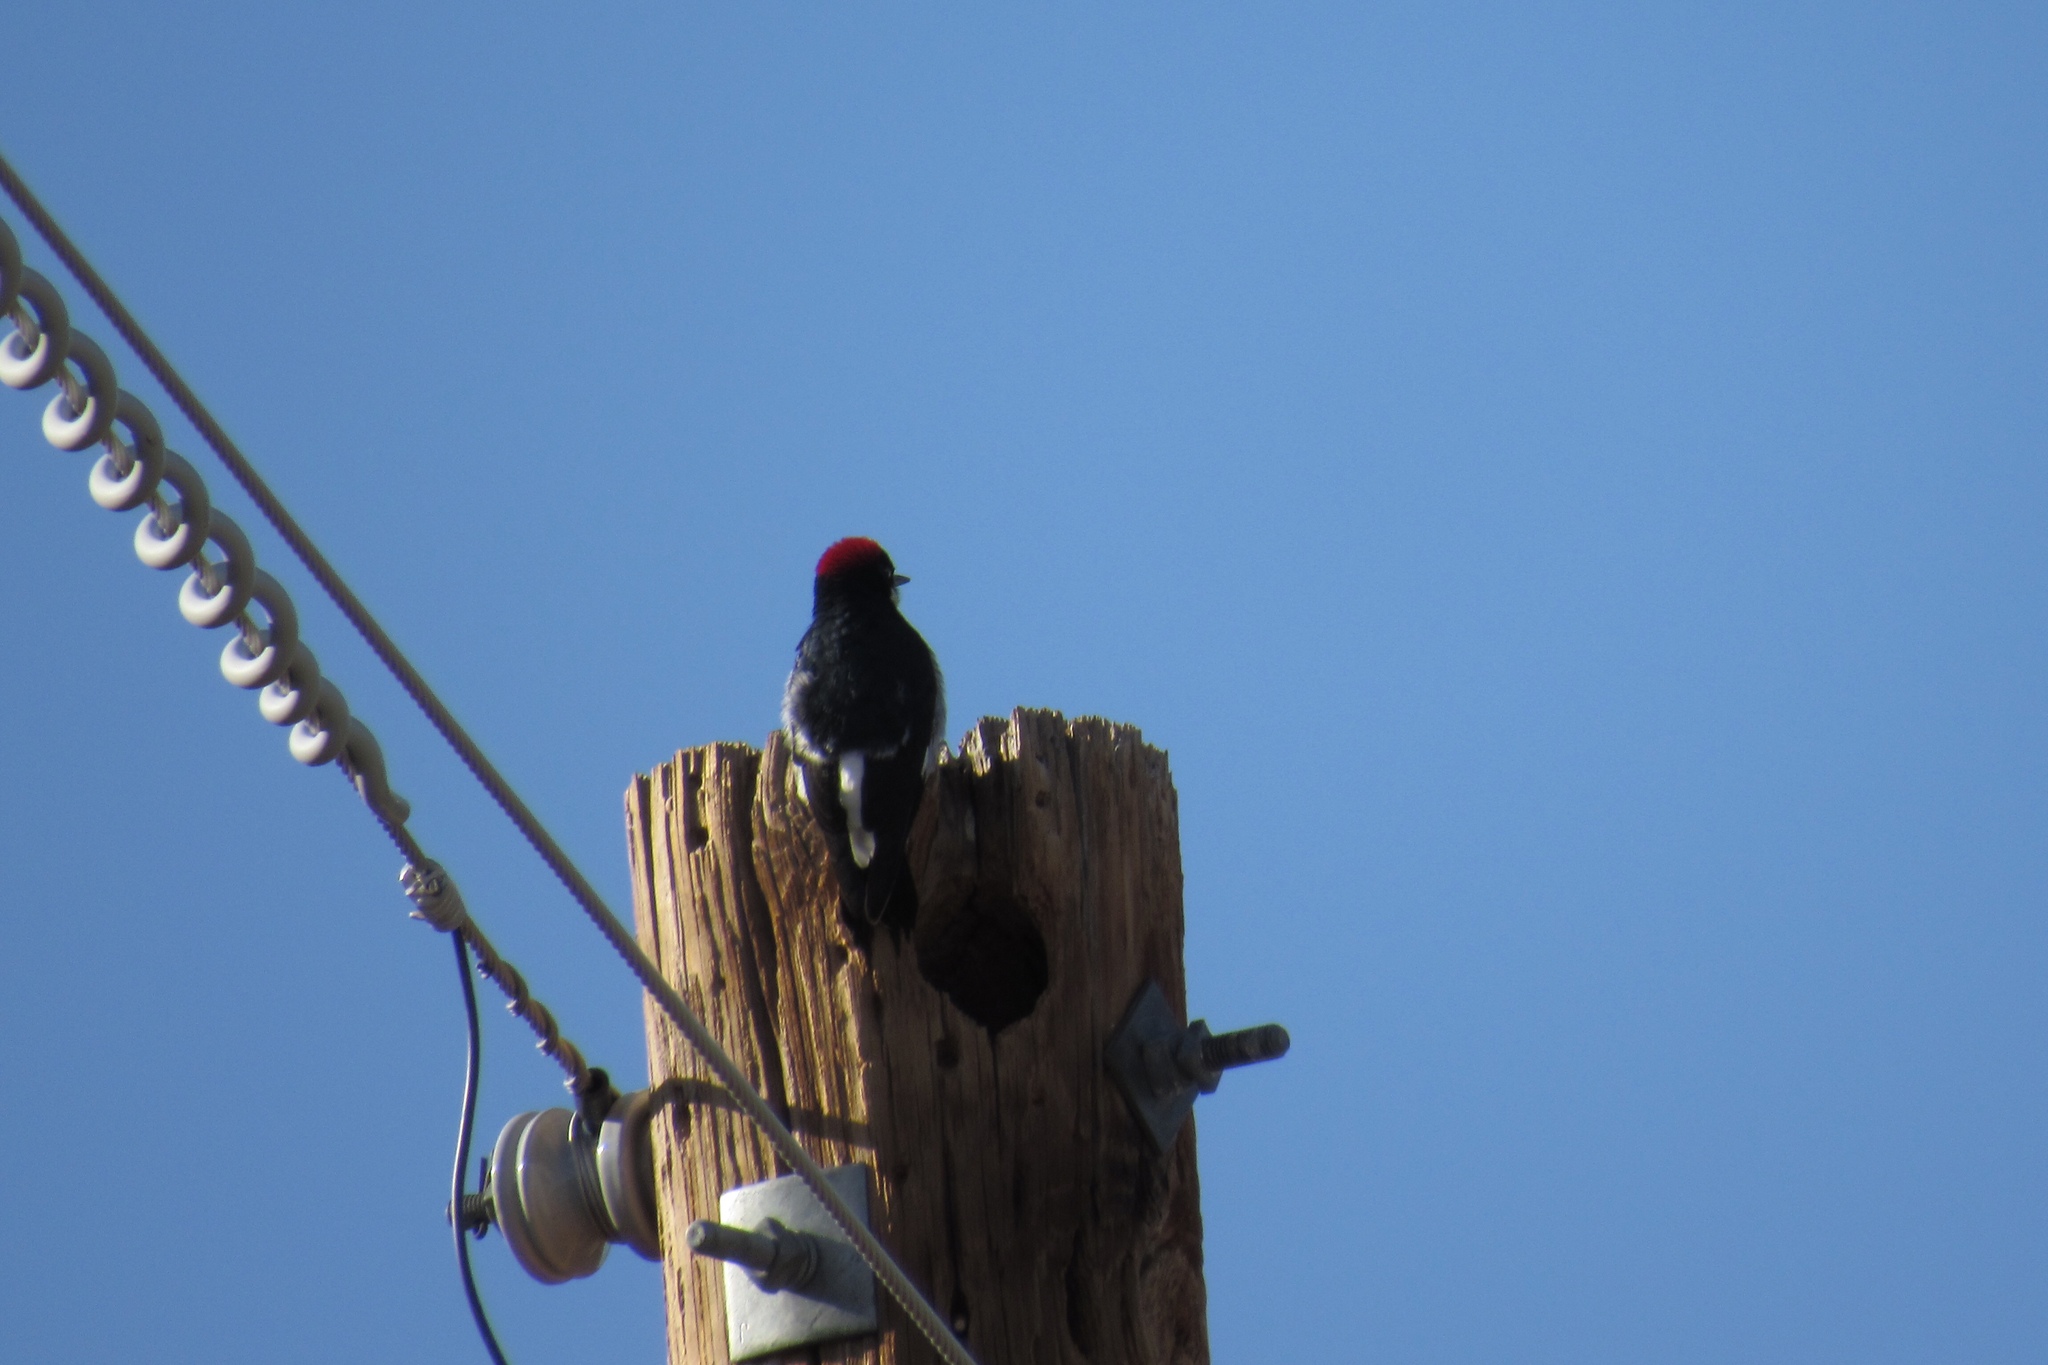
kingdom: Animalia
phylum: Chordata
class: Aves
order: Piciformes
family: Picidae
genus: Melanerpes
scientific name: Melanerpes formicivorus
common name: Acorn woodpecker
